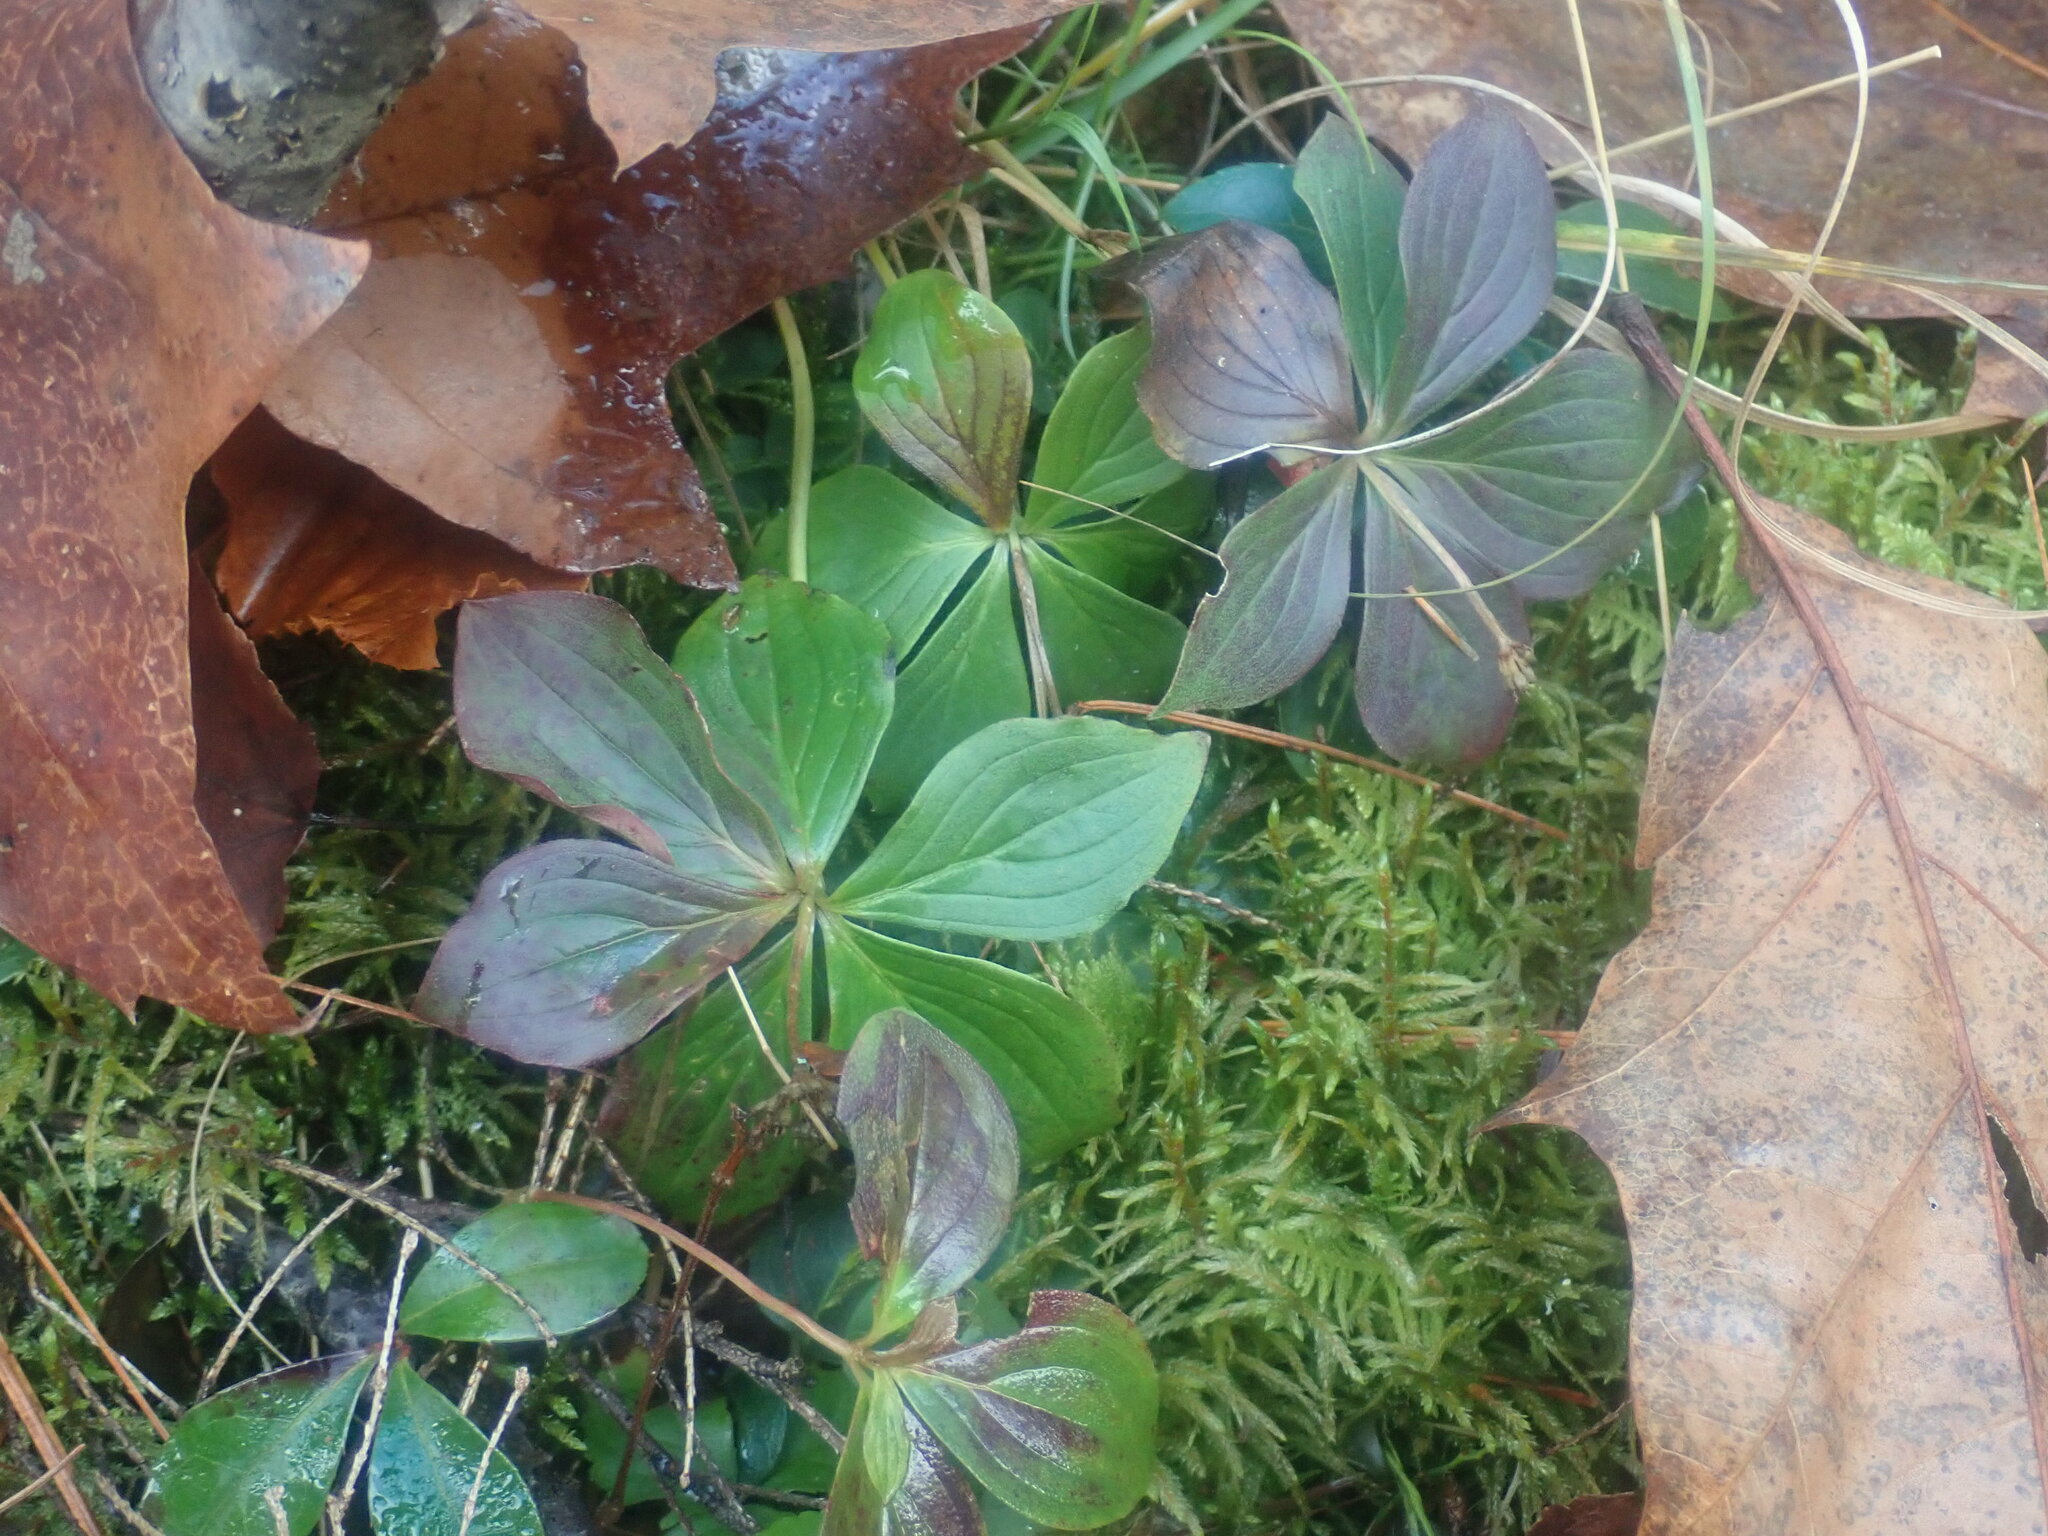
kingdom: Plantae
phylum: Tracheophyta
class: Magnoliopsida
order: Cornales
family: Cornaceae
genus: Cornus
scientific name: Cornus canadensis
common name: Creeping dogwood
